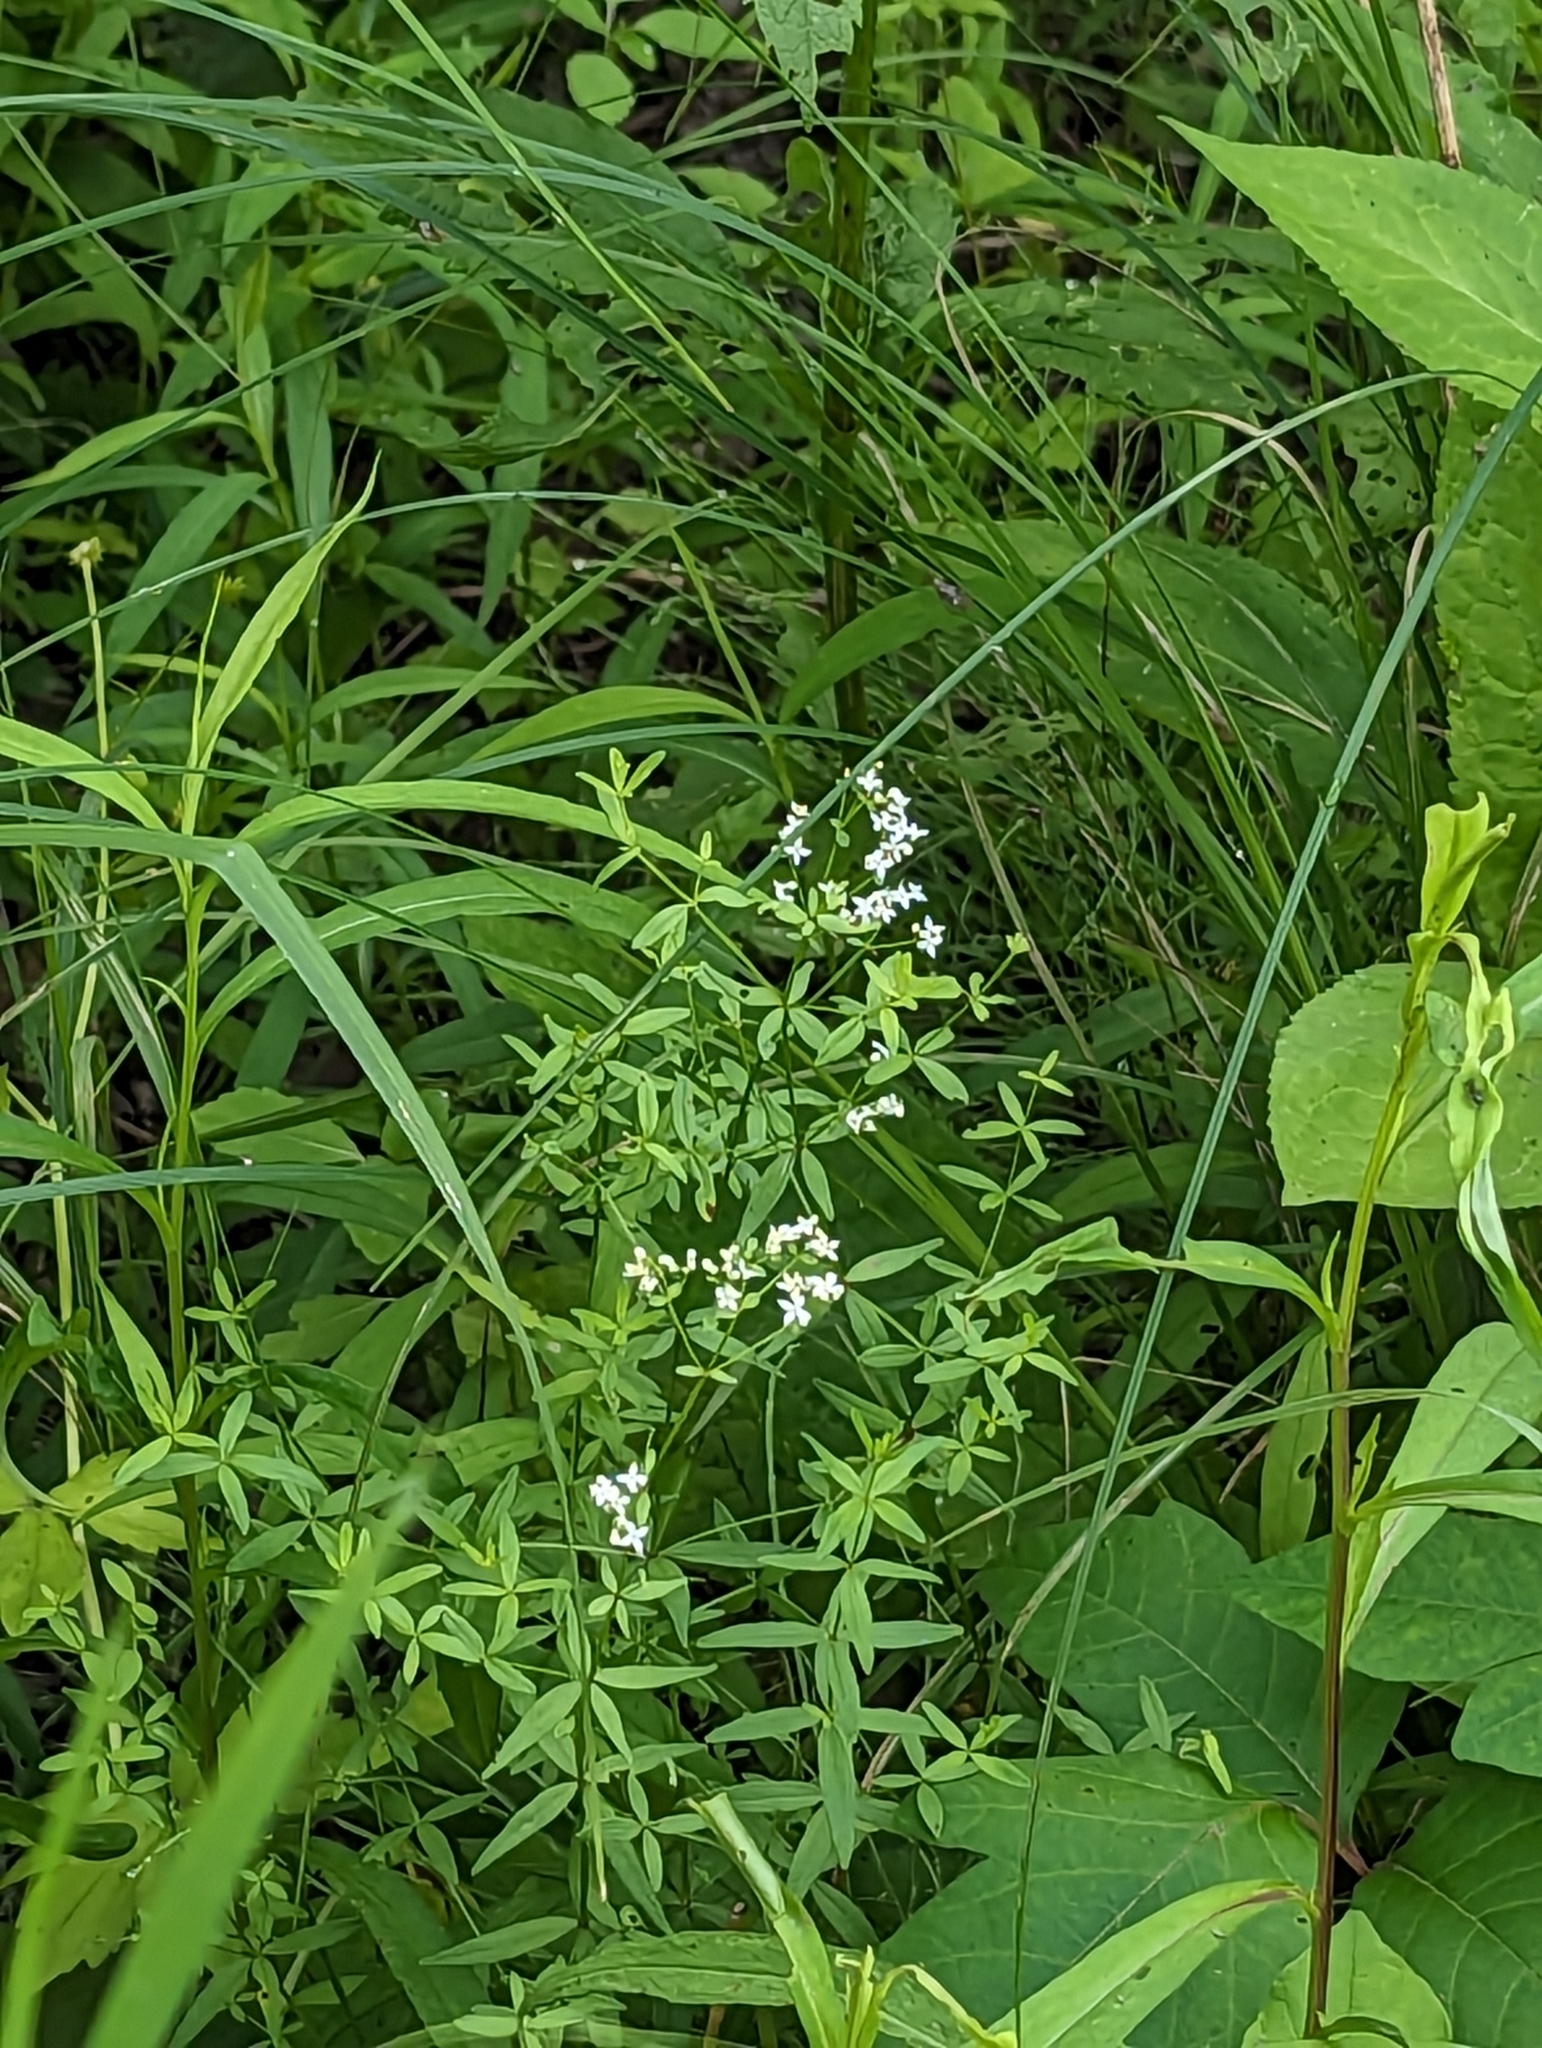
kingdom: Plantae
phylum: Tracheophyta
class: Magnoliopsida
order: Gentianales
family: Rubiaceae
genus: Galium
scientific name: Galium boreale
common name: Northern bedstraw
